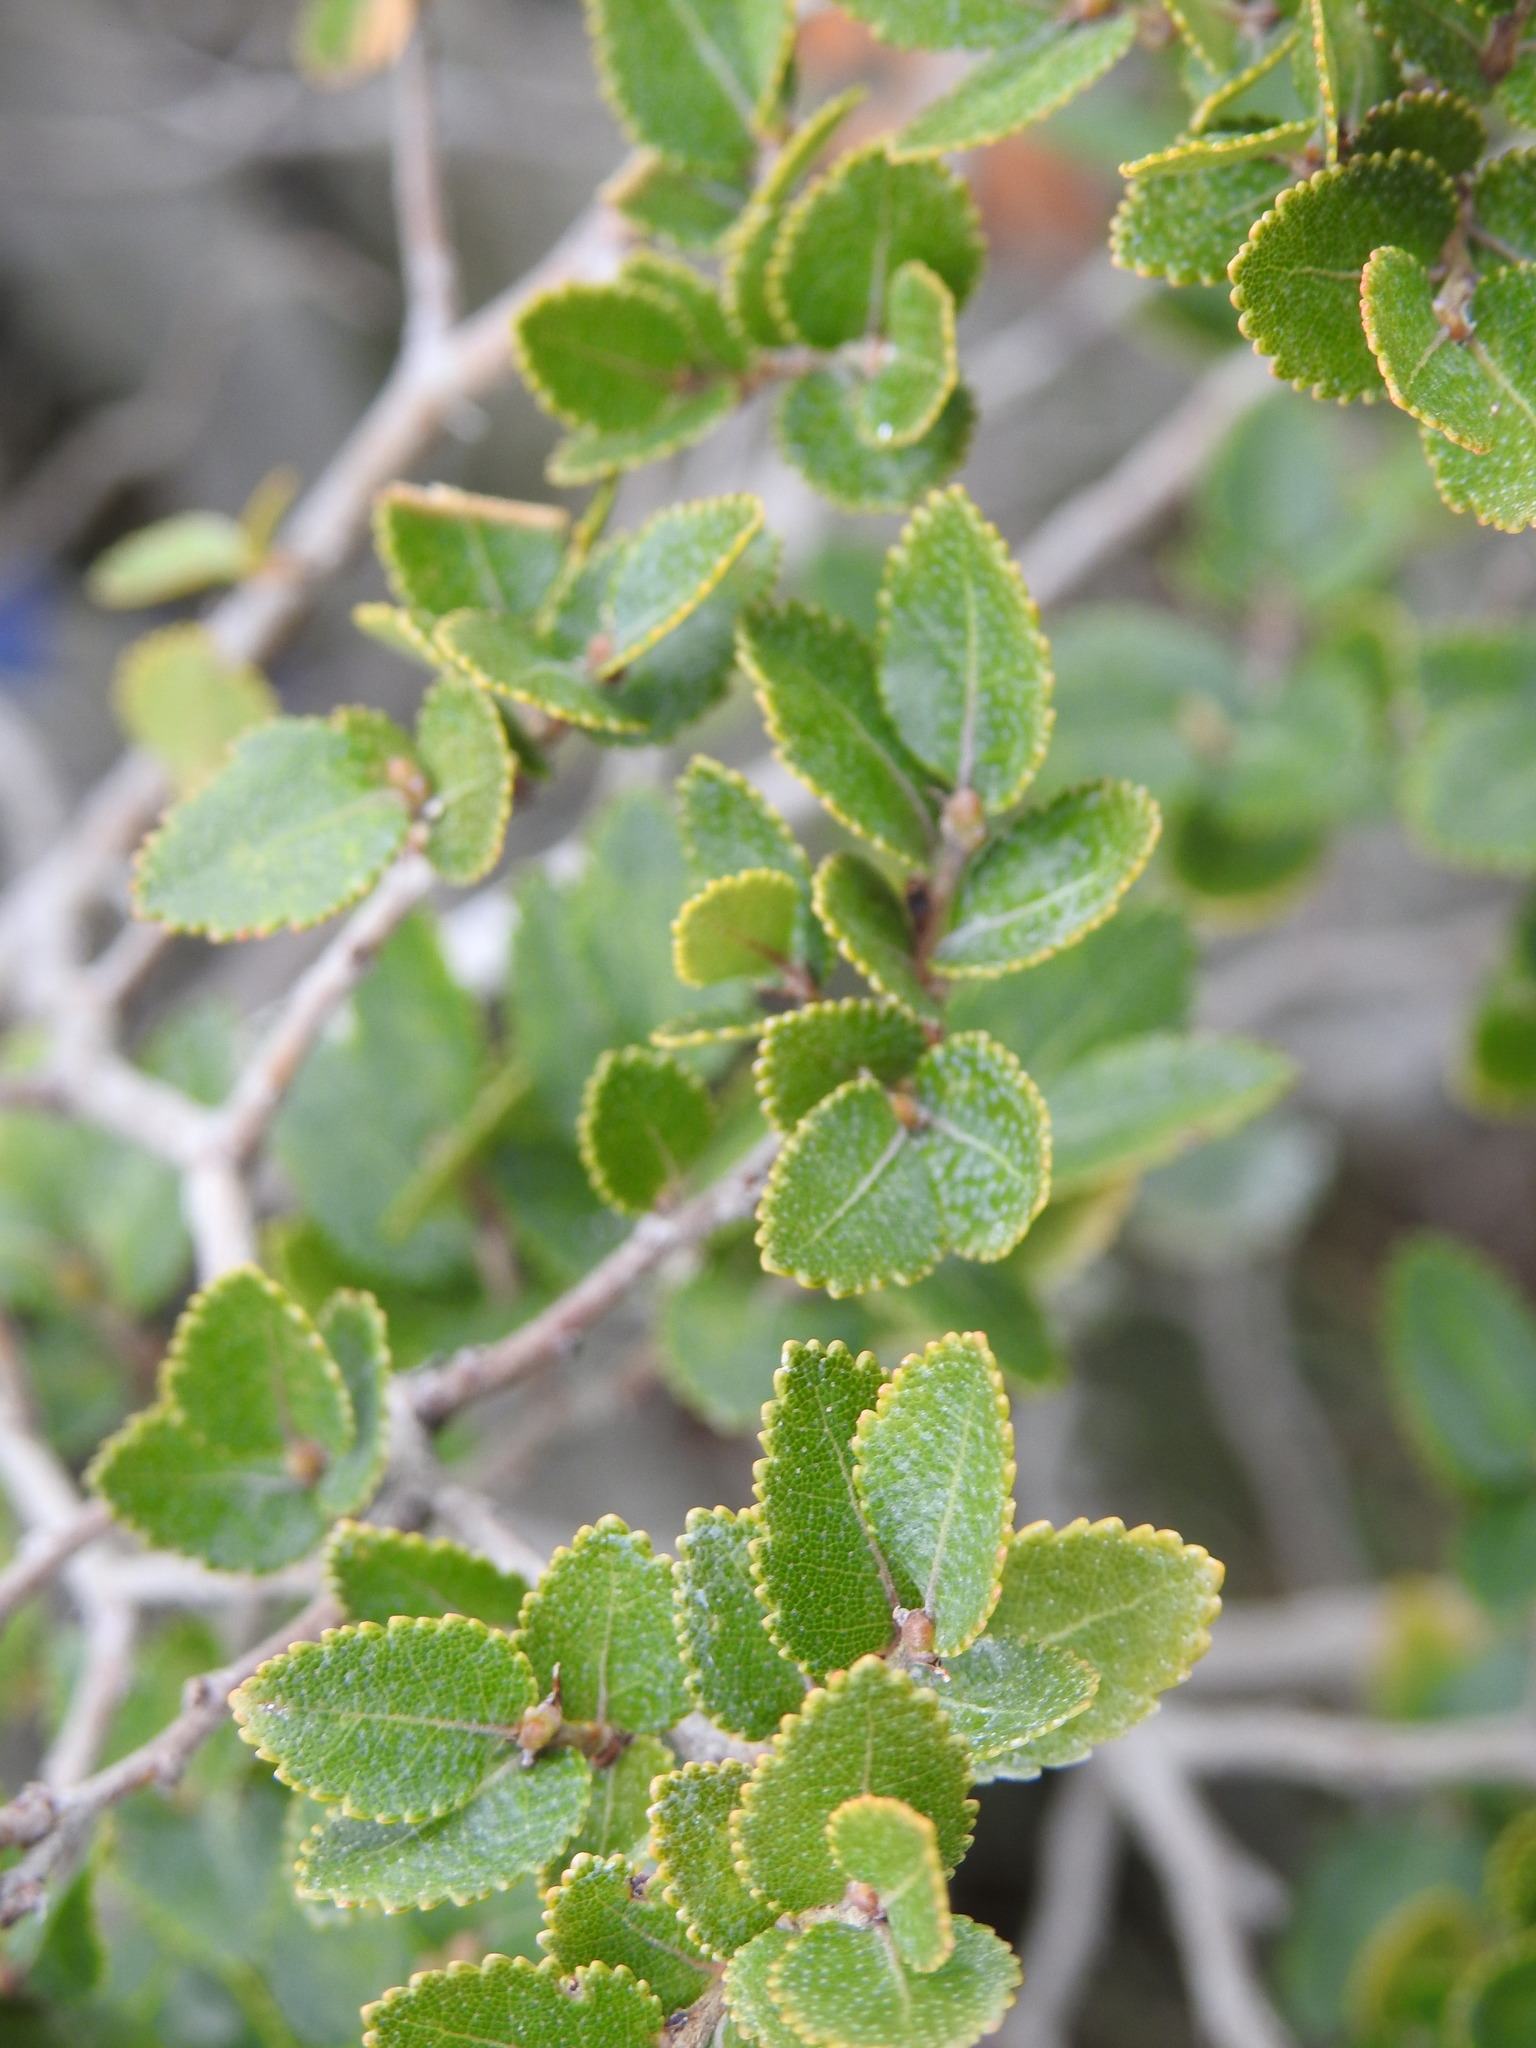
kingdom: Plantae
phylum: Tracheophyta
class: Magnoliopsida
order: Fagales
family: Nothofagaceae
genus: Nothofagus
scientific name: Nothofagus betuloides
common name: Magellan's beech
